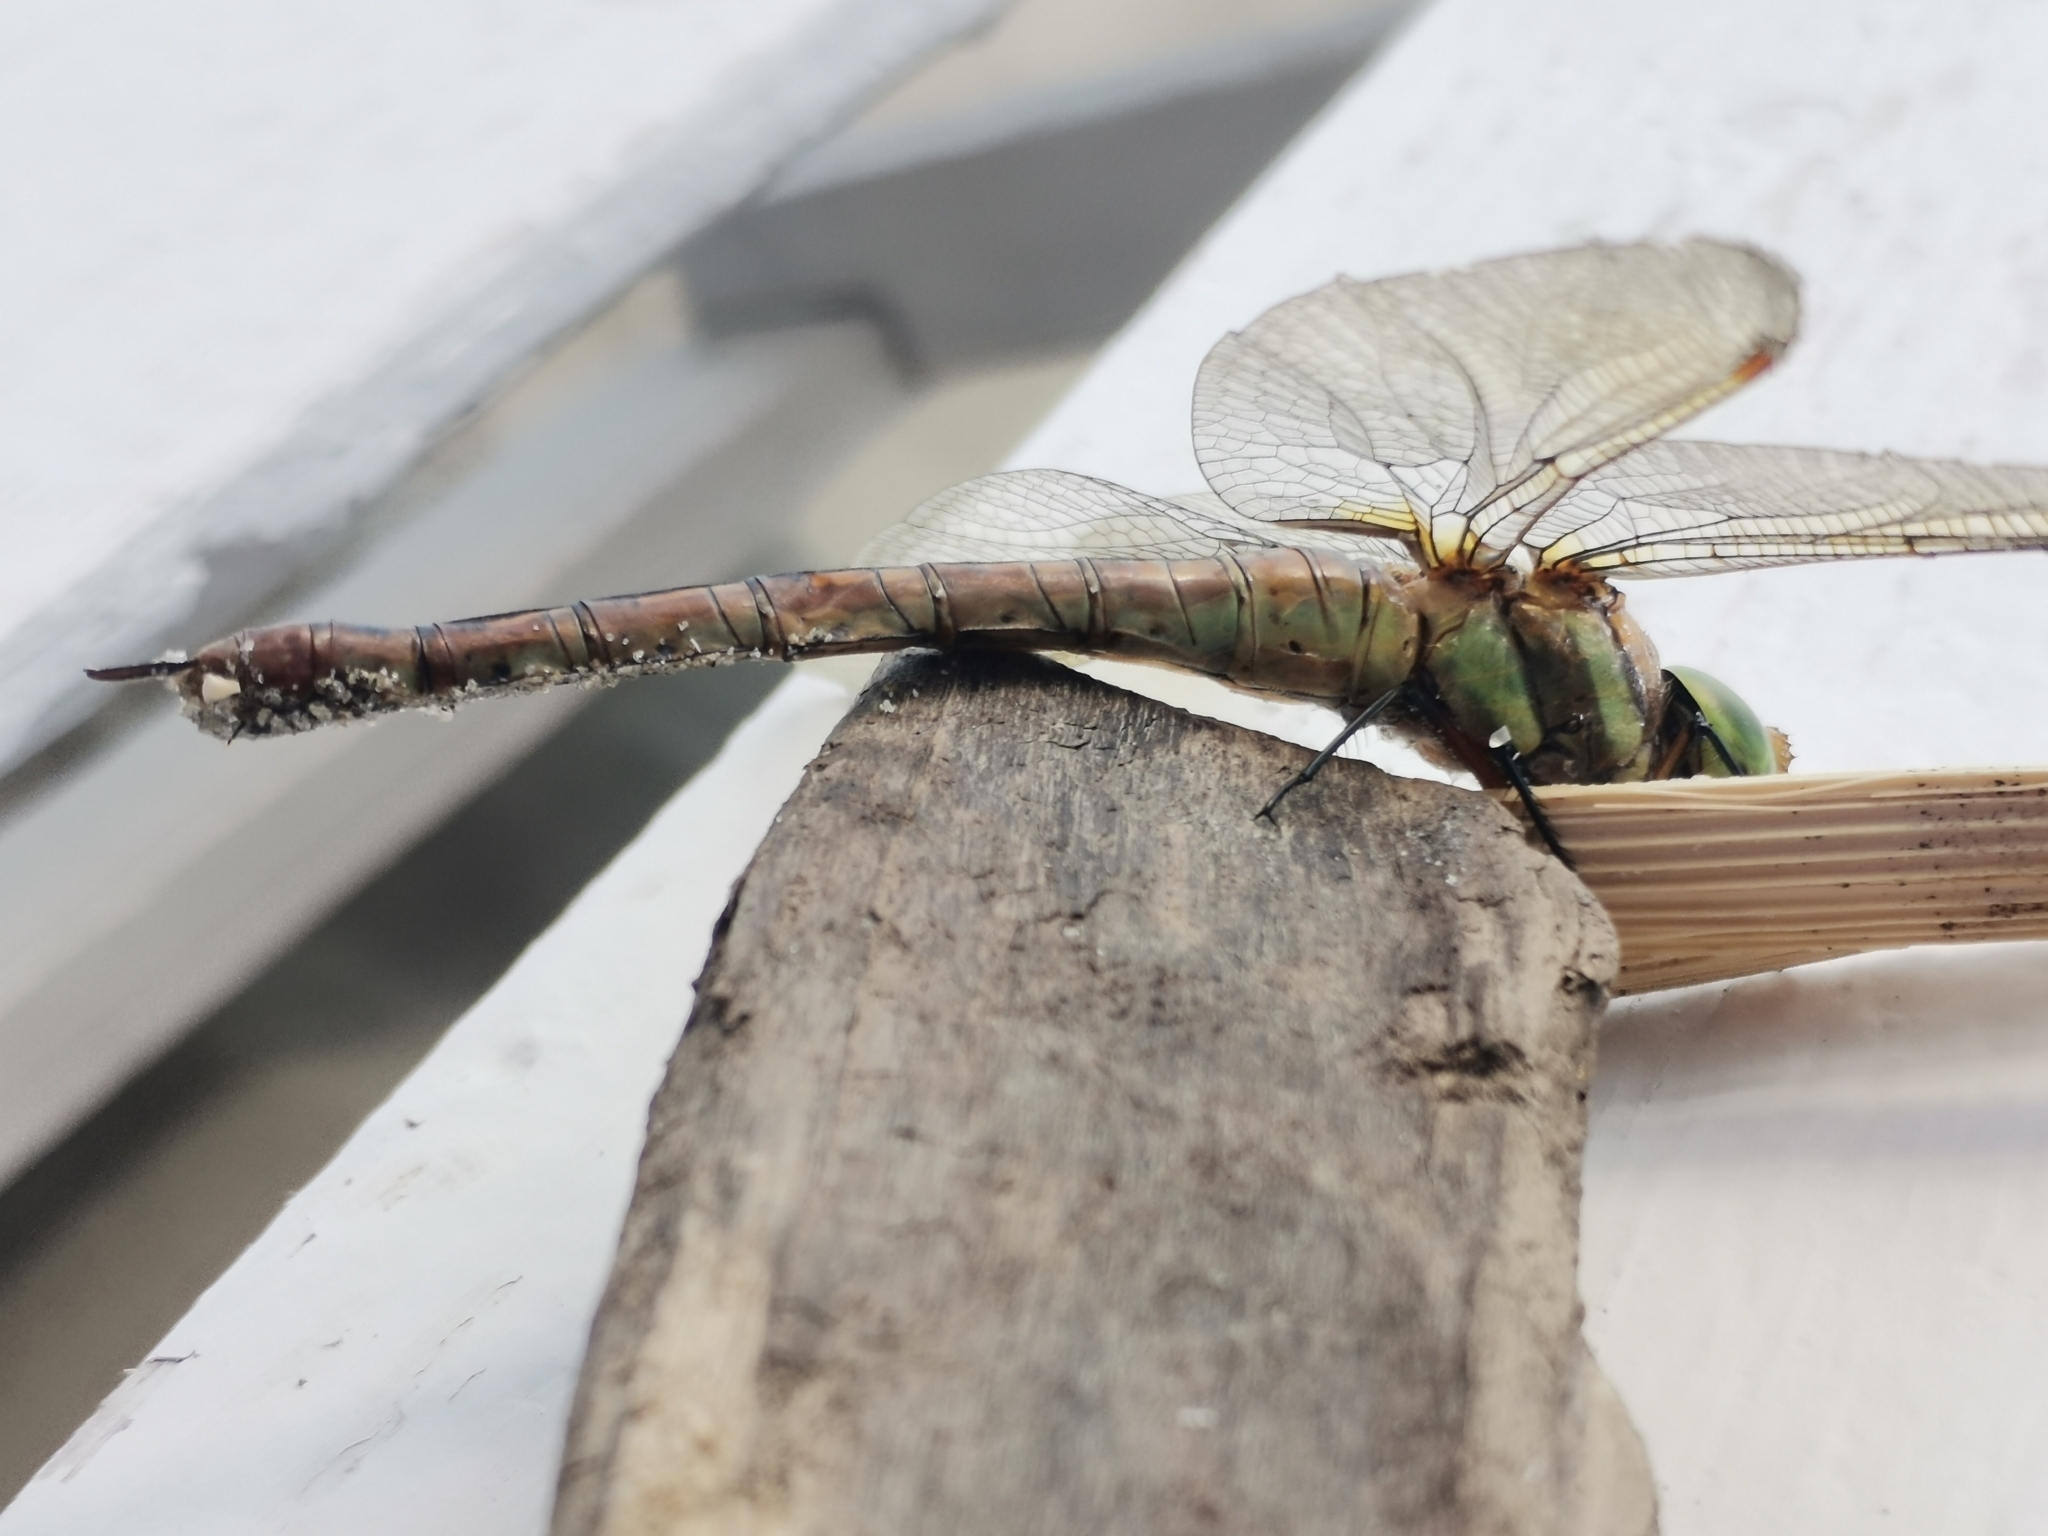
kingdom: Animalia
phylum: Arthropoda
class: Insecta
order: Odonata
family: Aeshnidae
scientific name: Aeshnidae
